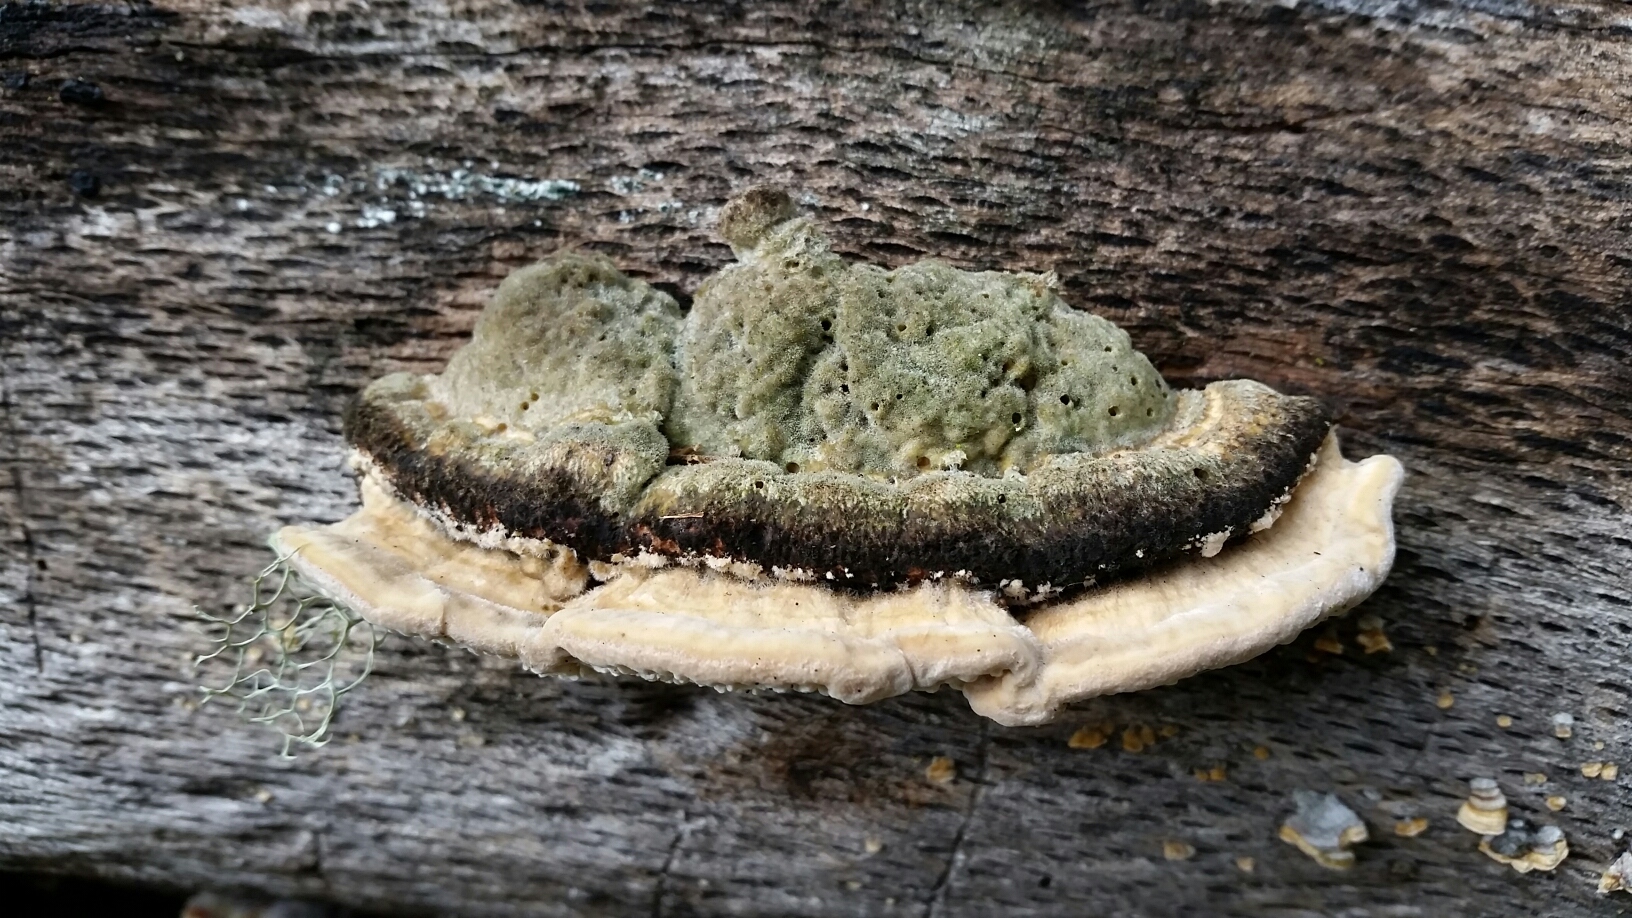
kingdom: Fungi
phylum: Basidiomycota
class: Agaricomycetes
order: Polyporales
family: Polyporaceae
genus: Lenzites
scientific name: Lenzites betulinus
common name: Birch mazegill
